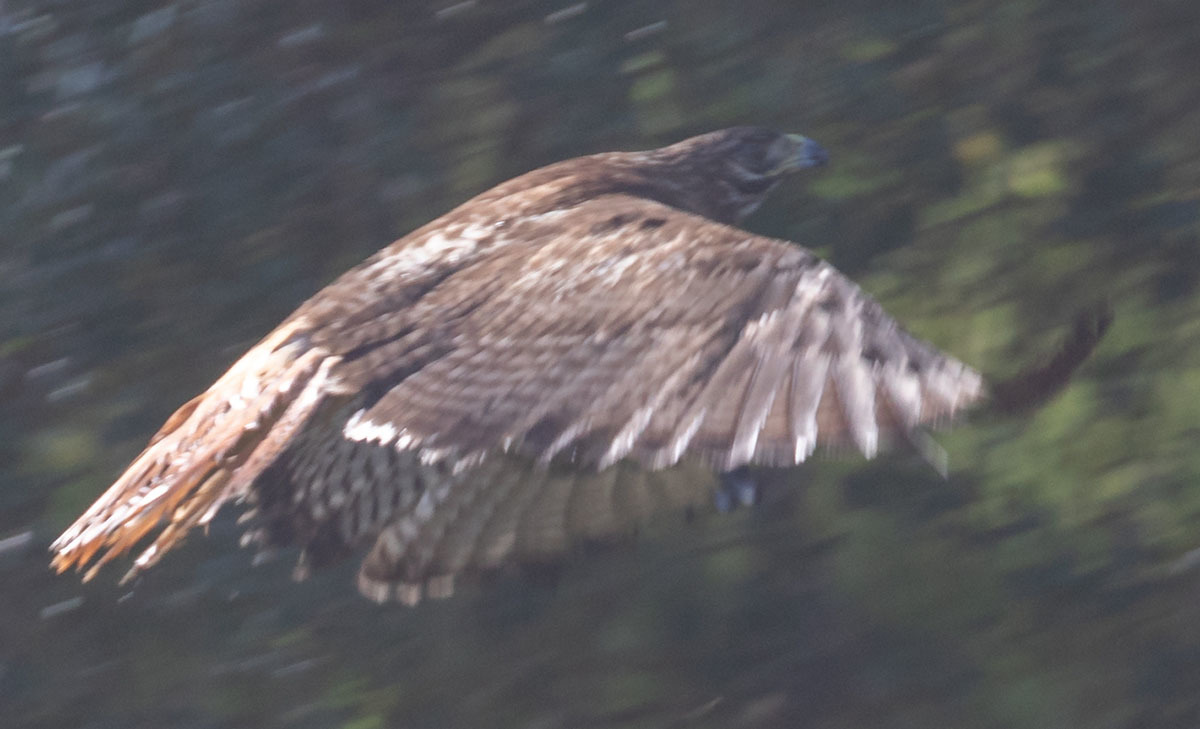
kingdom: Animalia
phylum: Chordata
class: Aves
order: Accipitriformes
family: Accipitridae
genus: Buteo
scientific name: Buteo jamaicensis
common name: Red-tailed hawk
